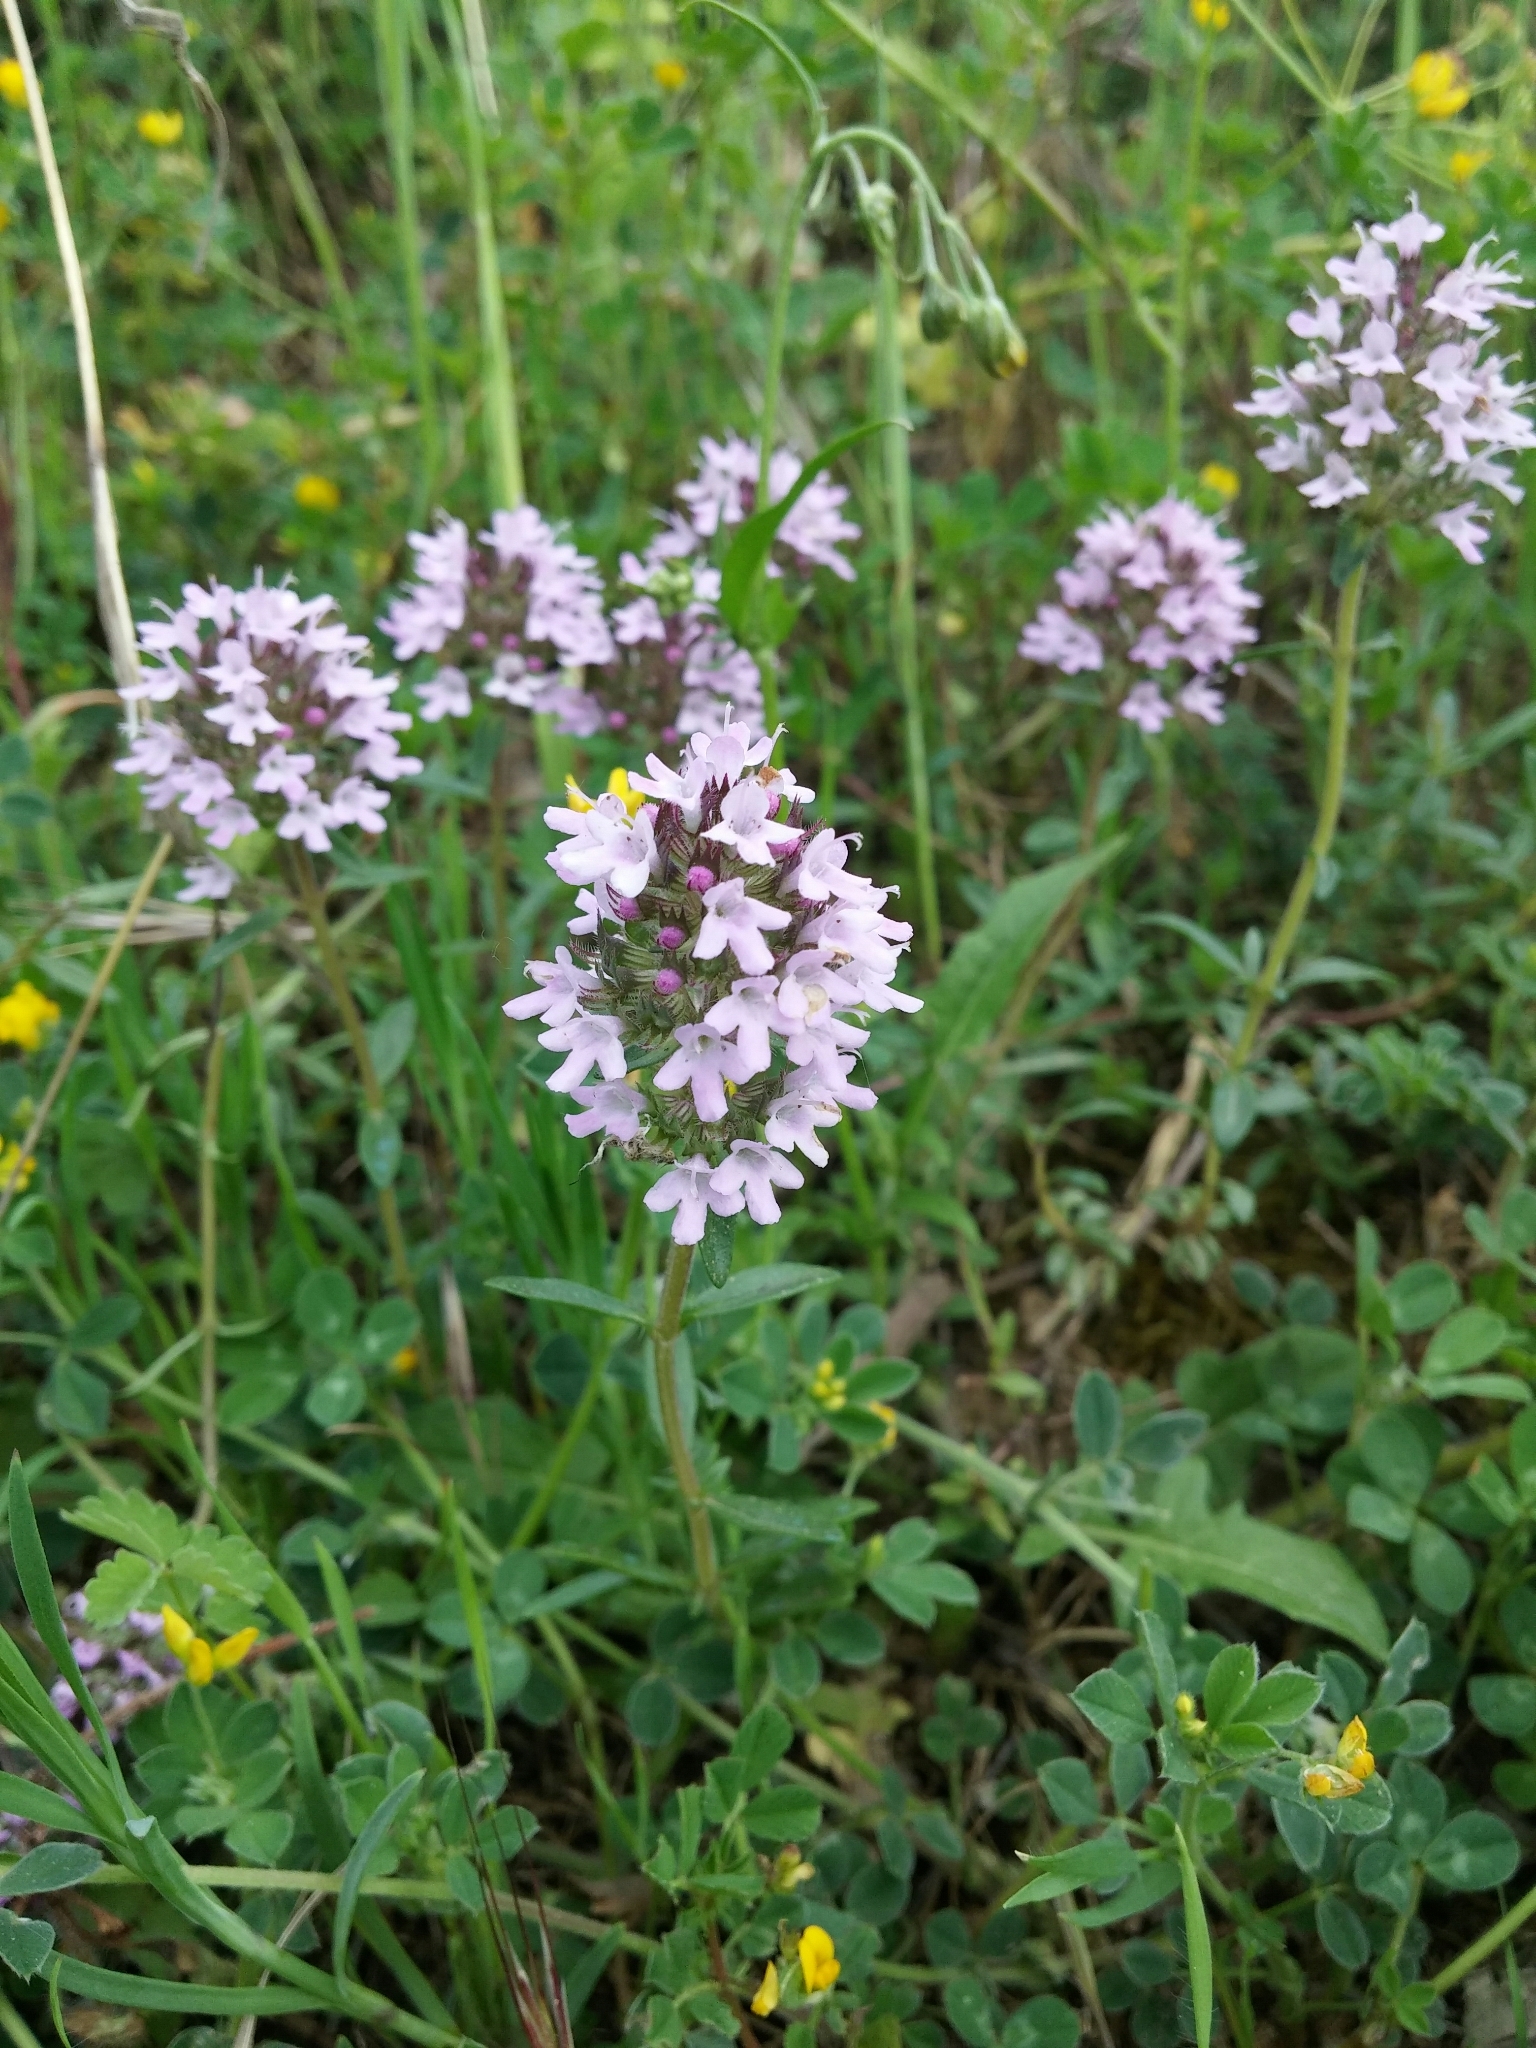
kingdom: Plantae
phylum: Tracheophyta
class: Magnoliopsida
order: Lamiales
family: Lamiaceae
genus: Thymus
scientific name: Thymus praecox
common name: Wild thyme
